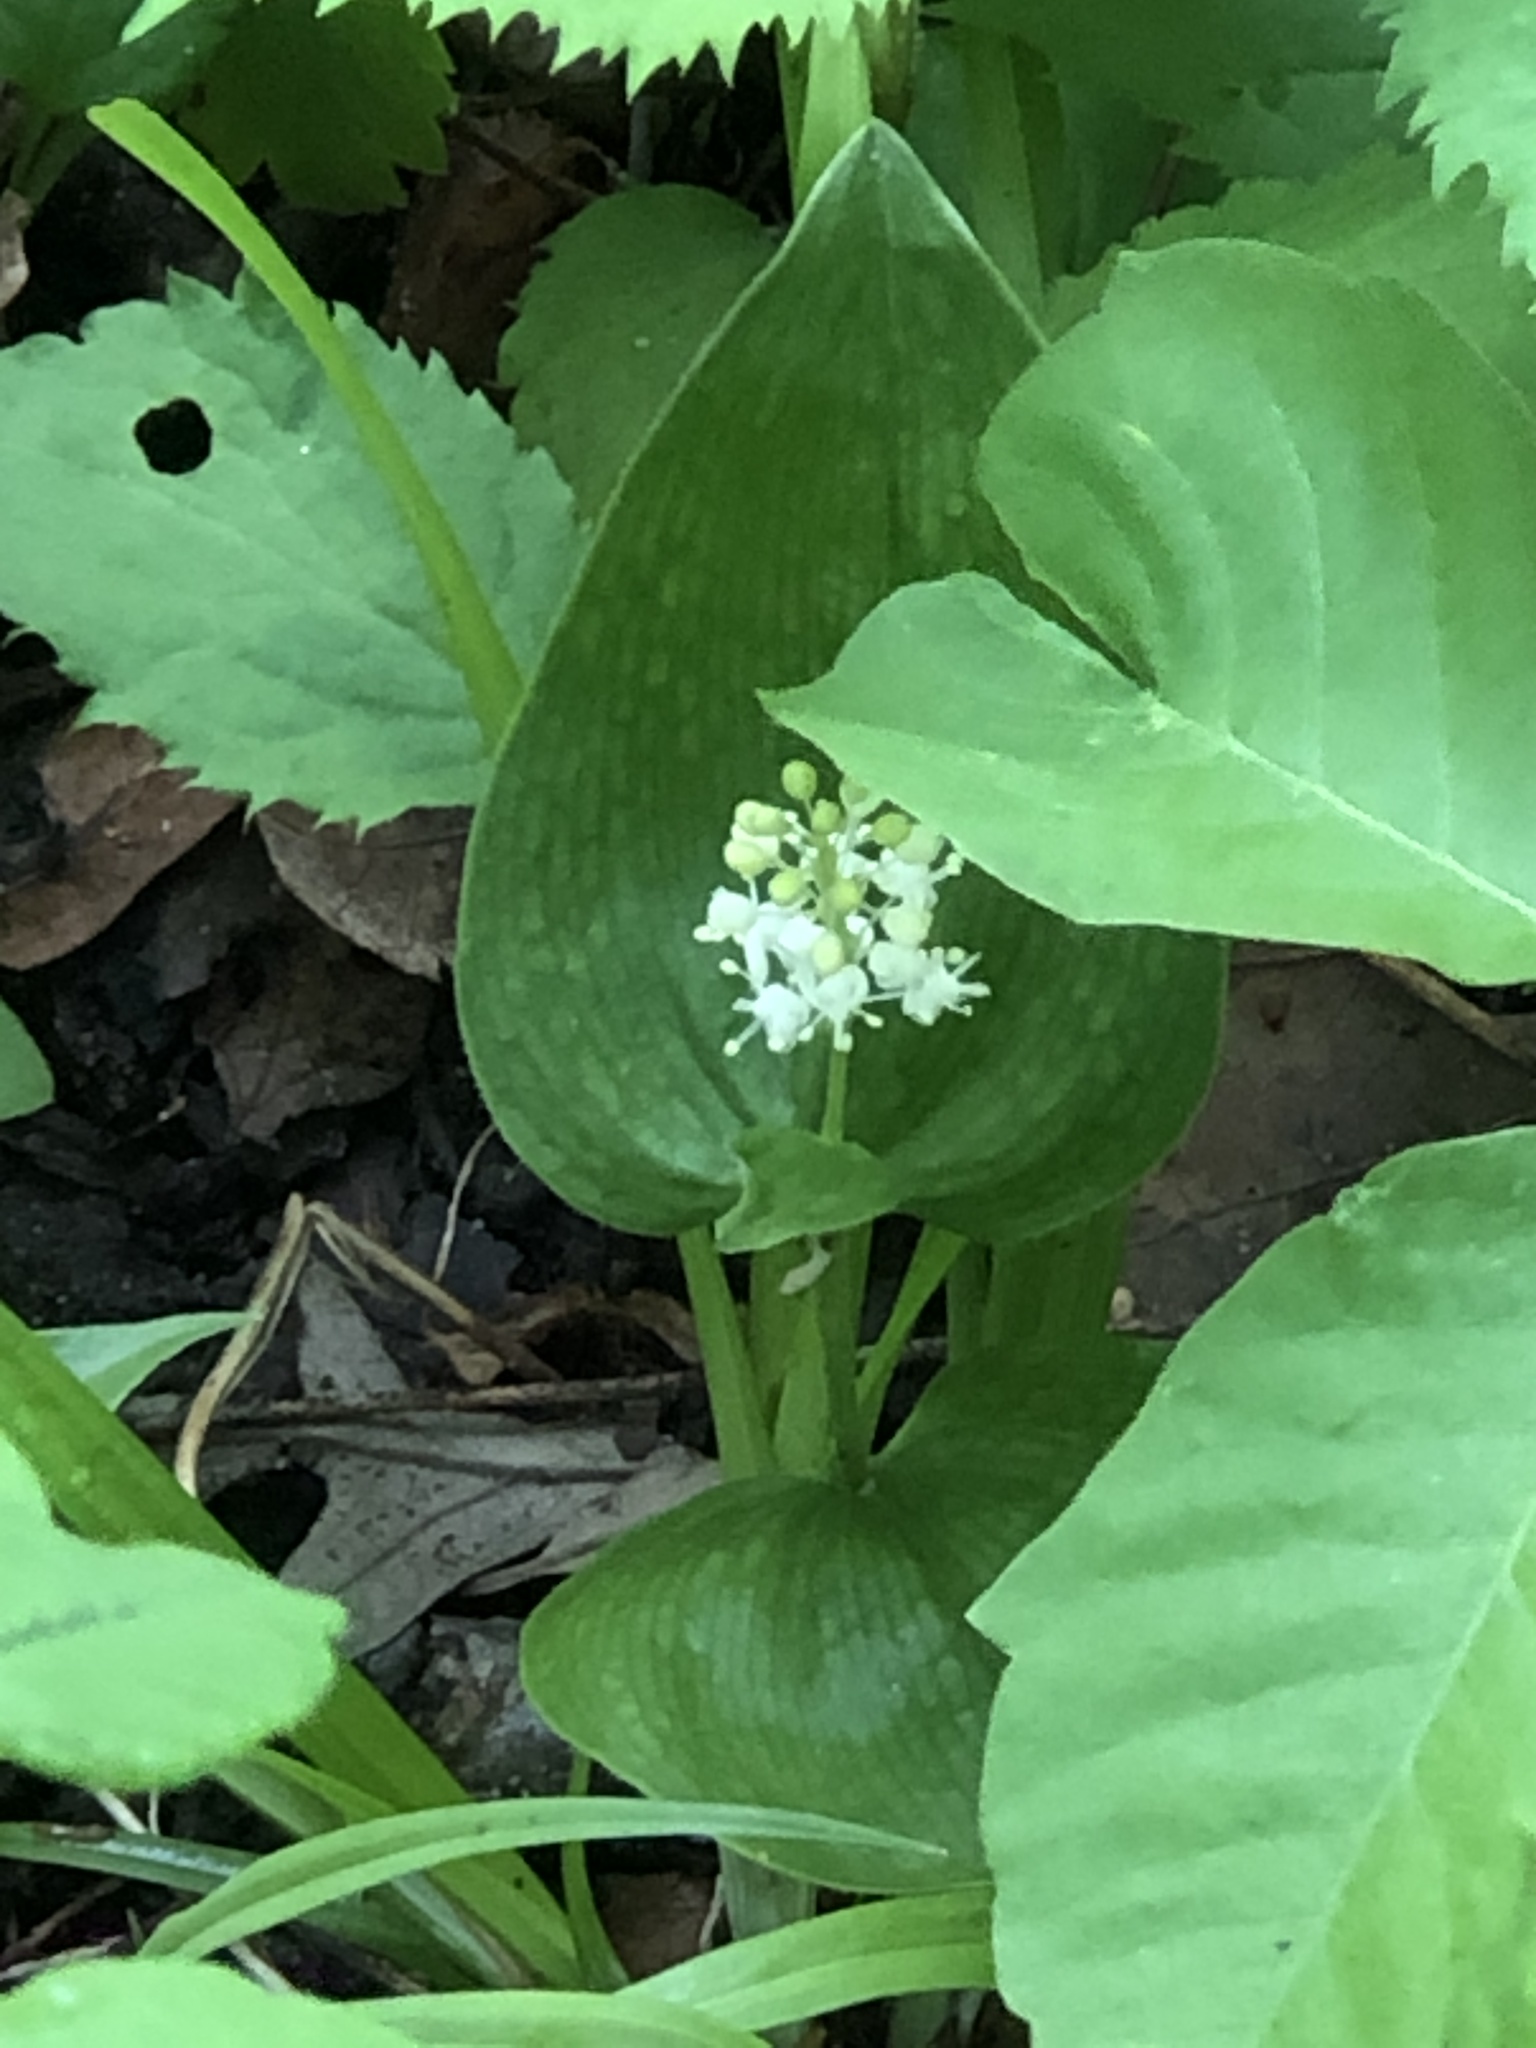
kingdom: Plantae
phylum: Tracheophyta
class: Liliopsida
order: Asparagales
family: Asparagaceae
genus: Maianthemum
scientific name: Maianthemum canadense
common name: False lily-of-the-valley
